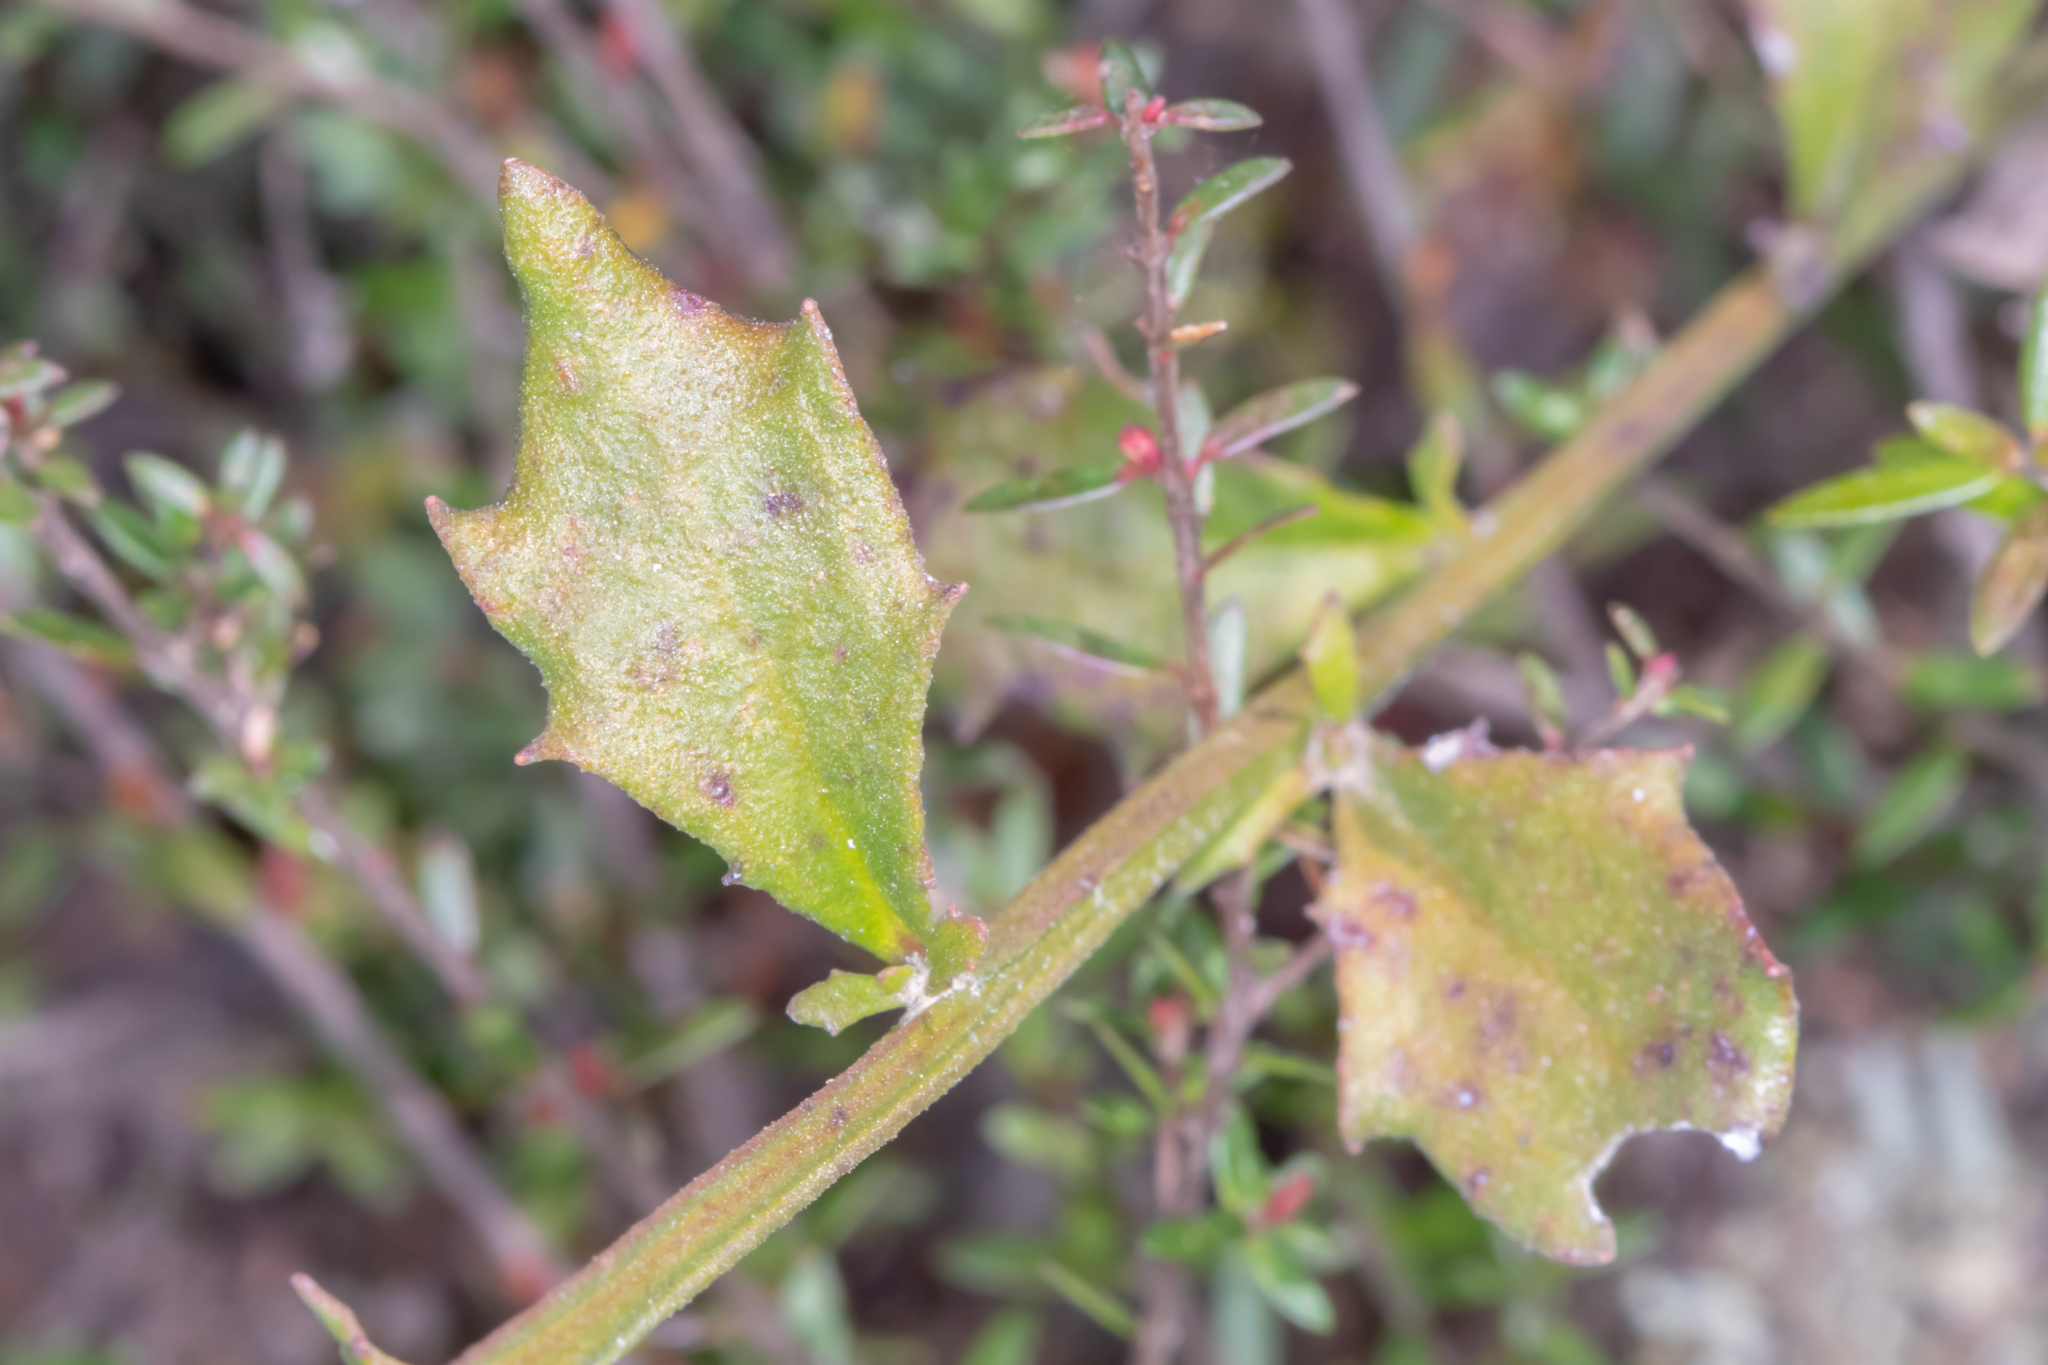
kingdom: Plantae
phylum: Tracheophyta
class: Magnoliopsida
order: Asterales
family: Goodeniaceae
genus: Dampiera
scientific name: Dampiera stricta
